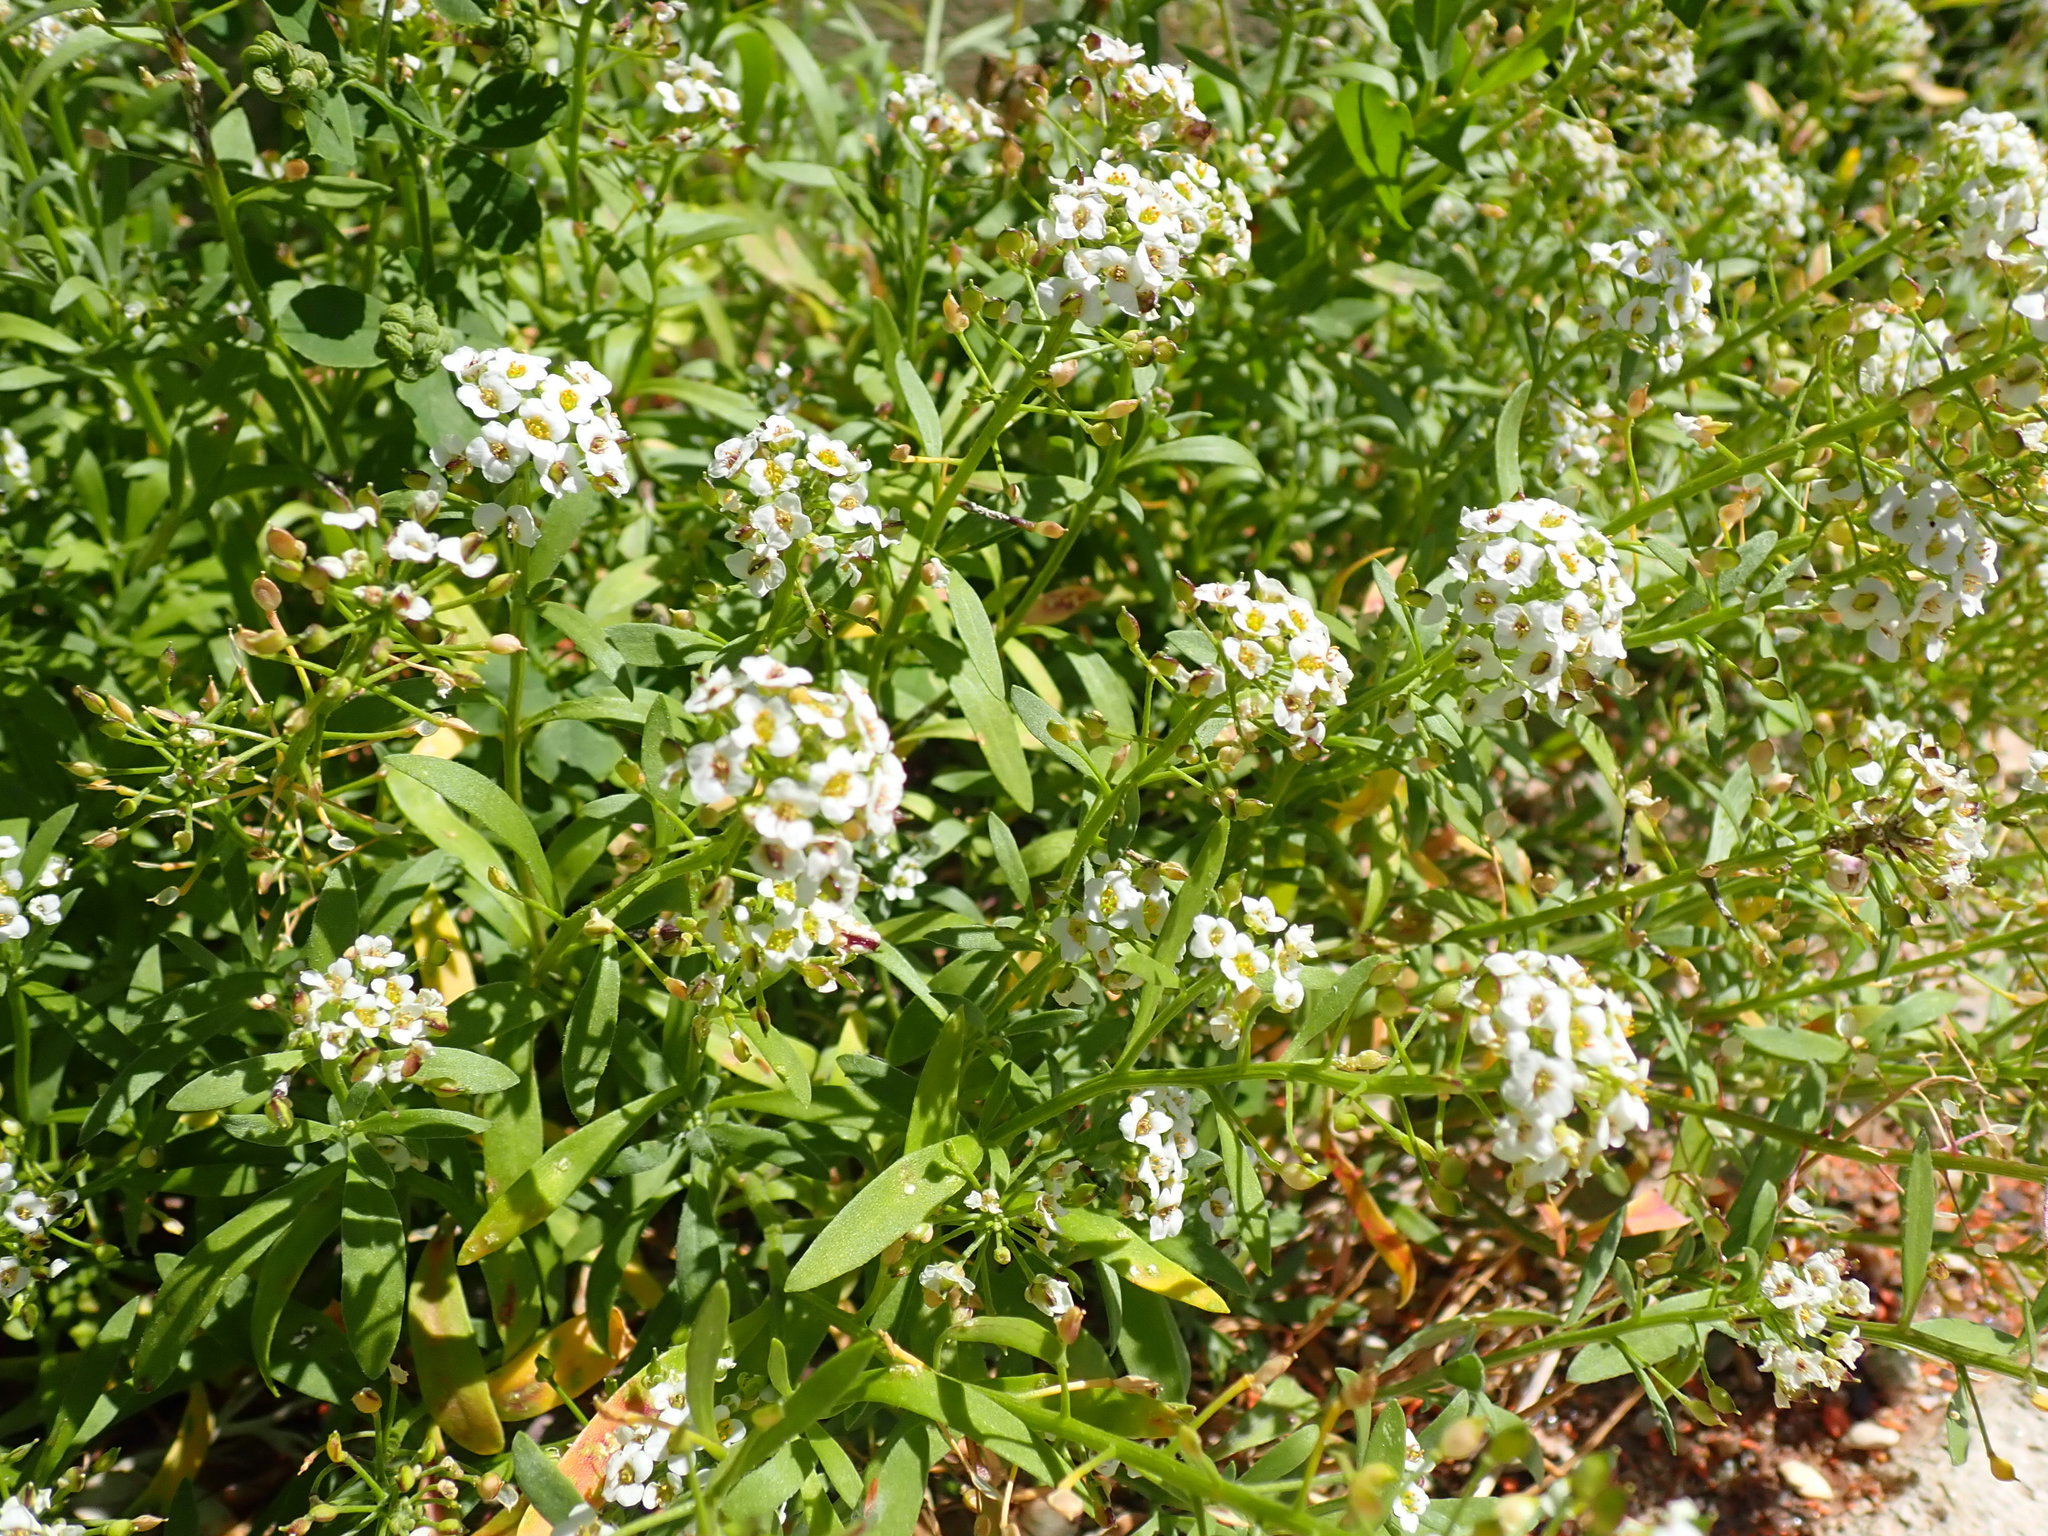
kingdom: Plantae
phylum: Tracheophyta
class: Magnoliopsida
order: Brassicales
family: Brassicaceae
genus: Lobularia
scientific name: Lobularia maritima
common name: Sweet alison
